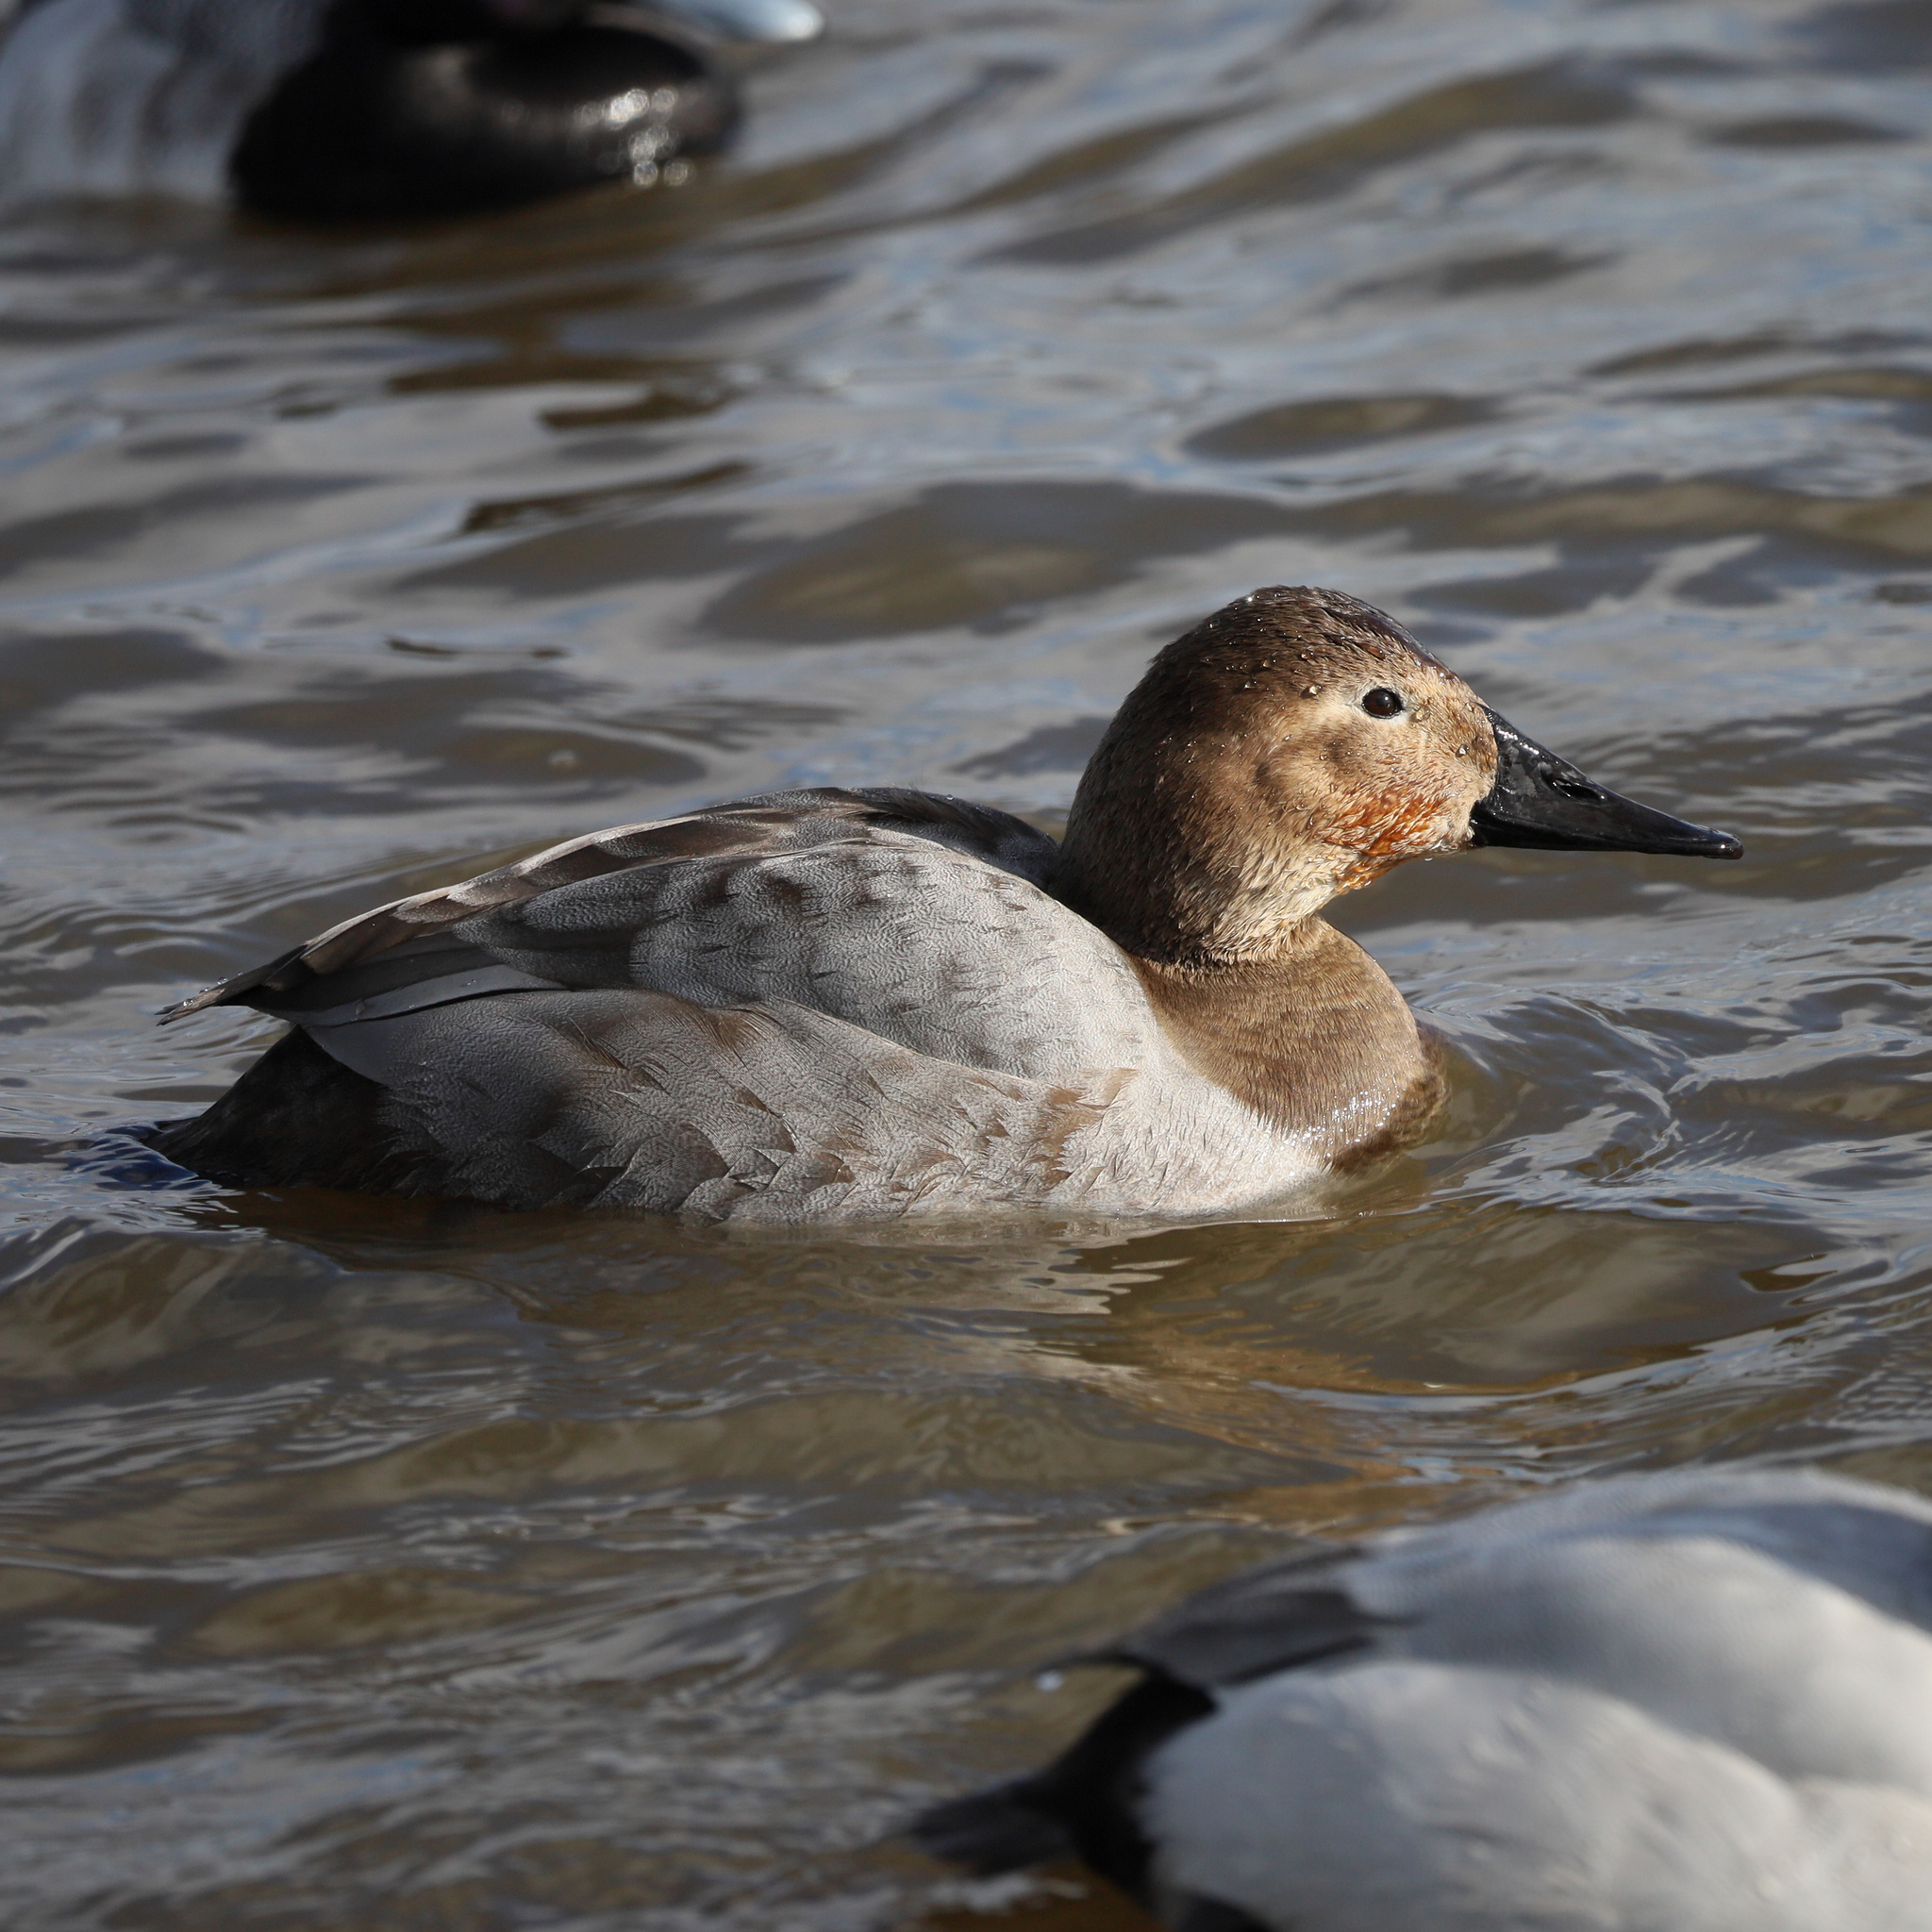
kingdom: Animalia
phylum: Chordata
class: Aves
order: Anseriformes
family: Anatidae
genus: Aythya
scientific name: Aythya valisineria
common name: Canvasback
